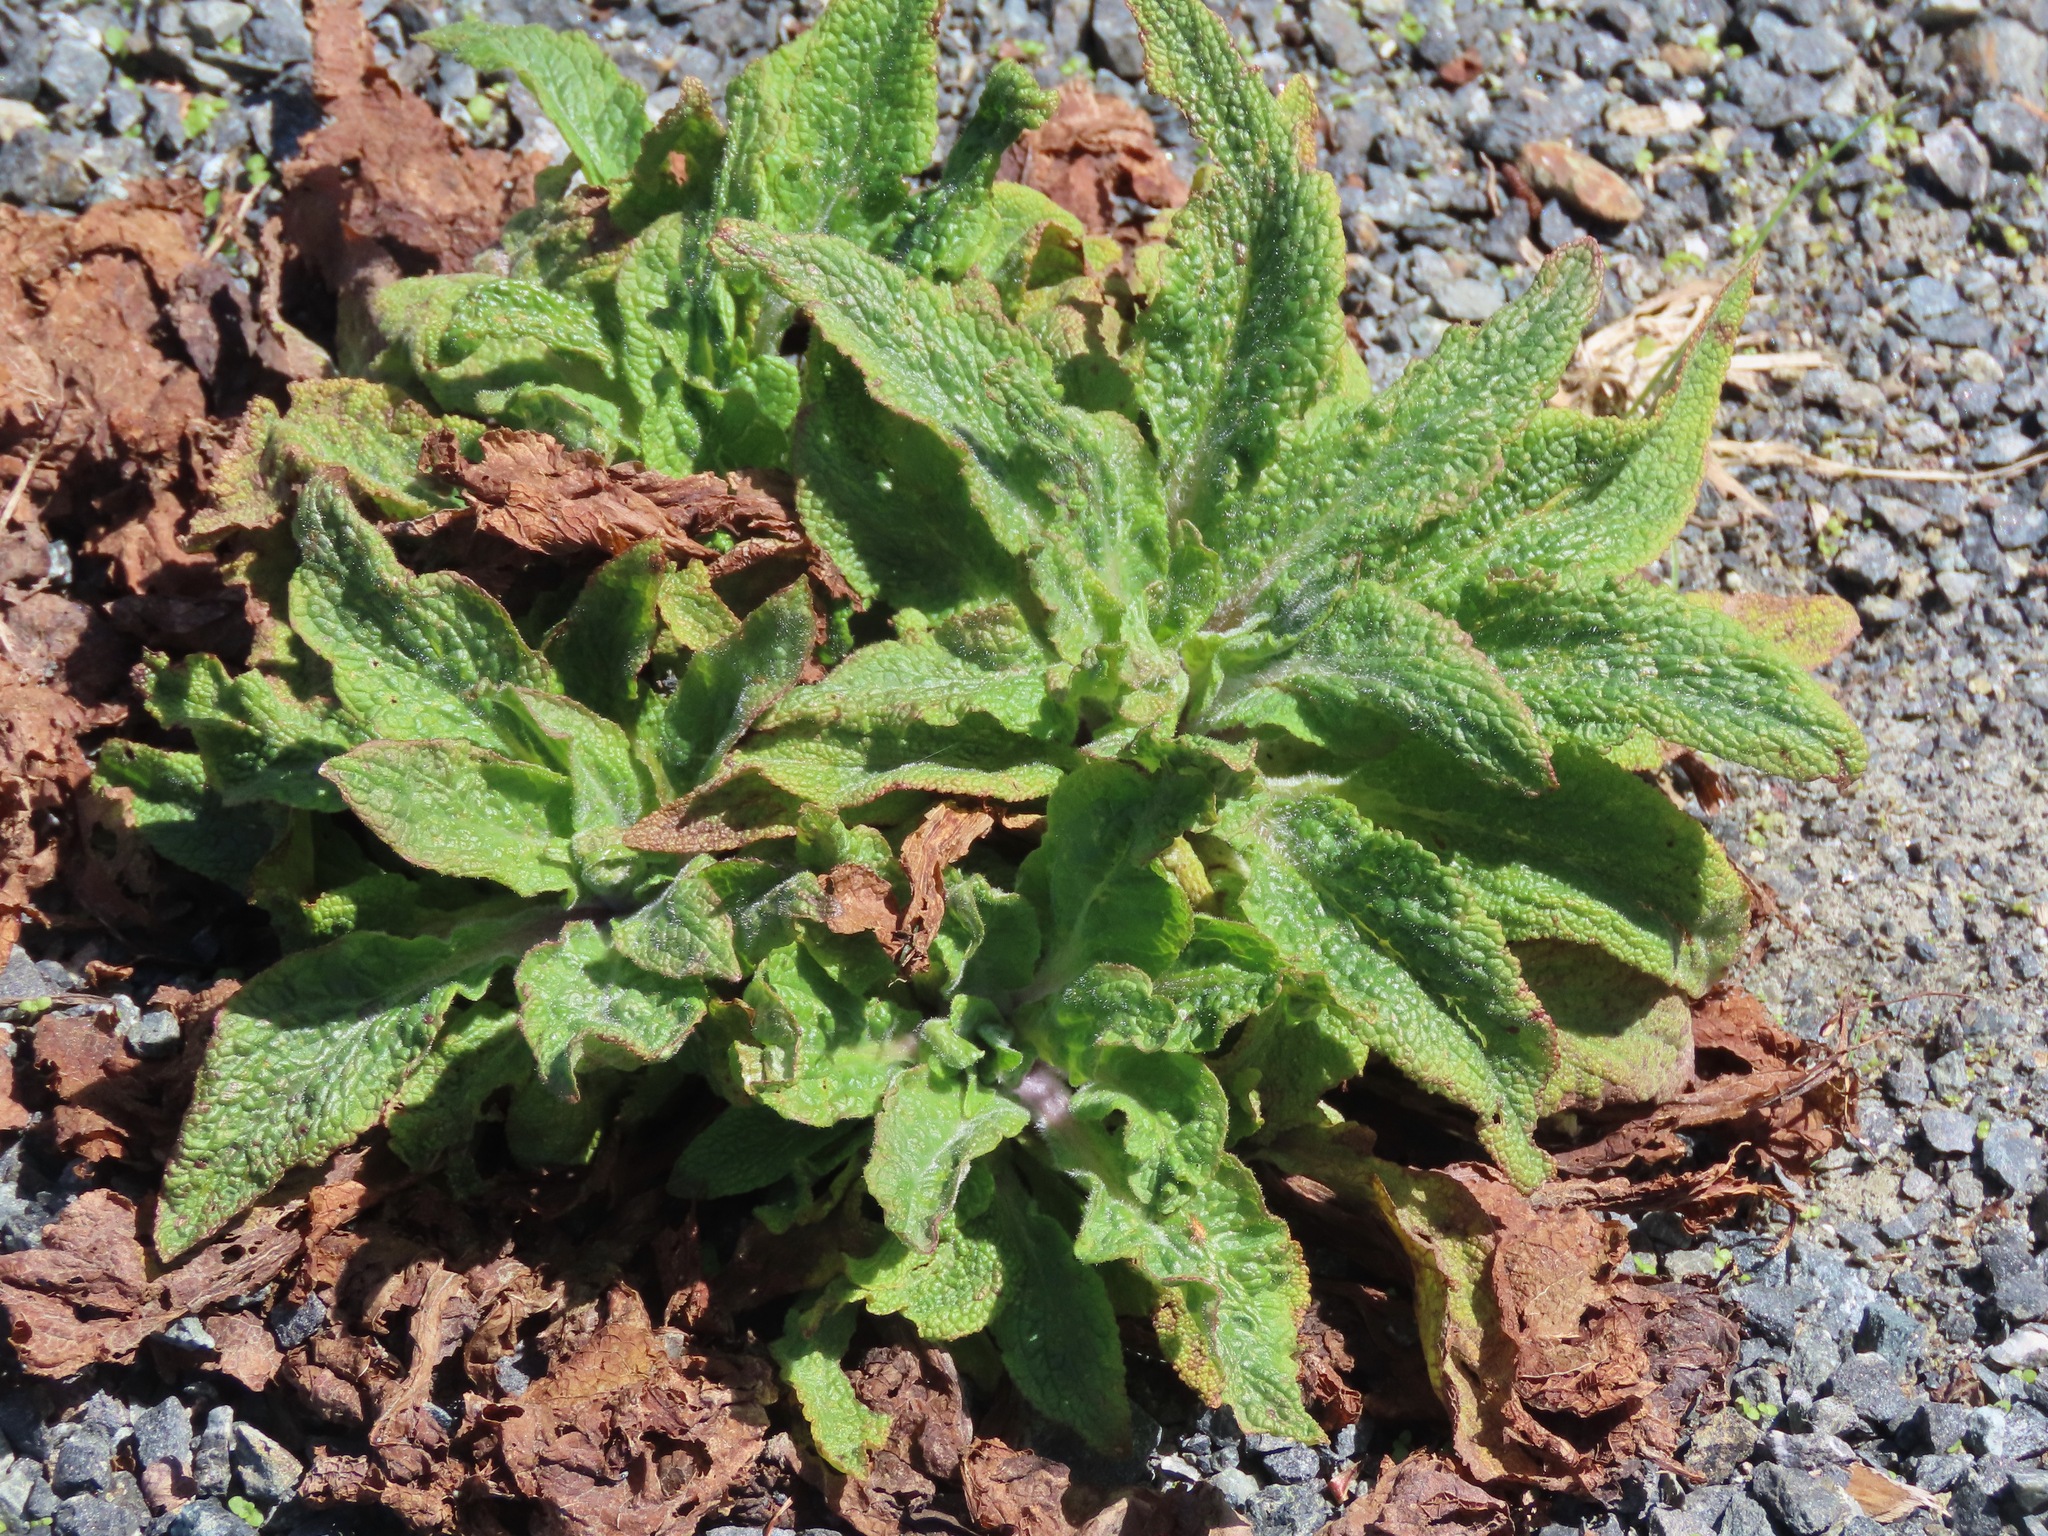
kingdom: Plantae
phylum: Tracheophyta
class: Magnoliopsida
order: Lamiales
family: Plantaginaceae
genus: Digitalis
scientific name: Digitalis purpurea
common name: Foxglove
